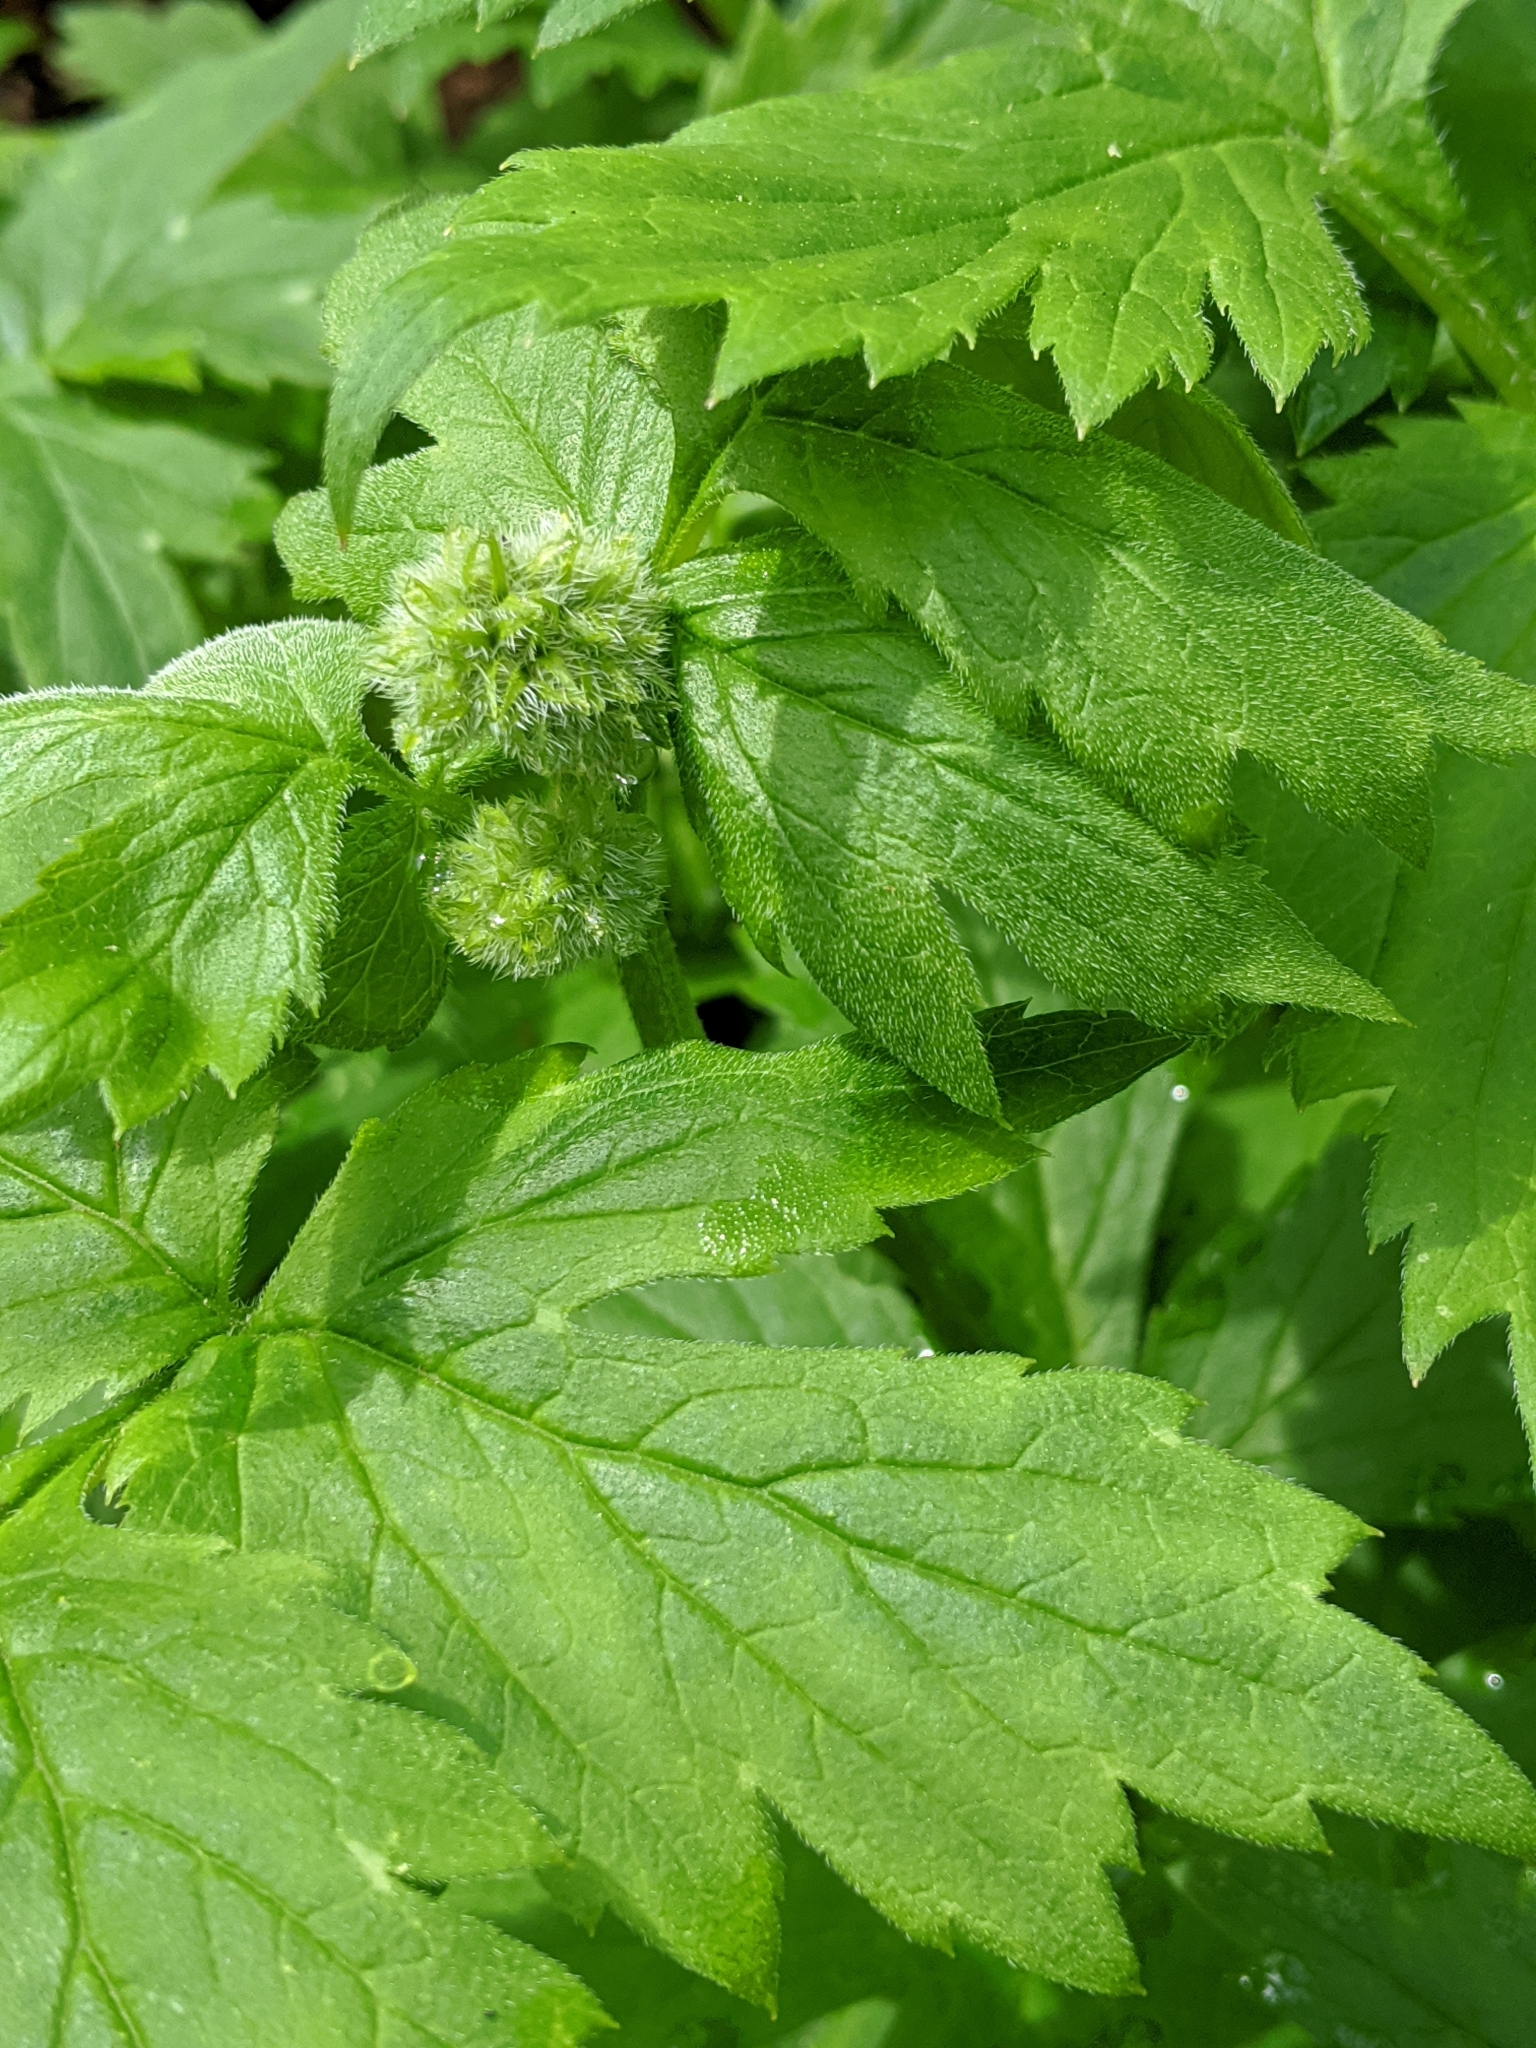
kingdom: Plantae
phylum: Tracheophyta
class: Magnoliopsida
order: Boraginales
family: Hydrophyllaceae
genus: Hydrophyllum
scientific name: Hydrophyllum tenuipes
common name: Pacific waterleaf
